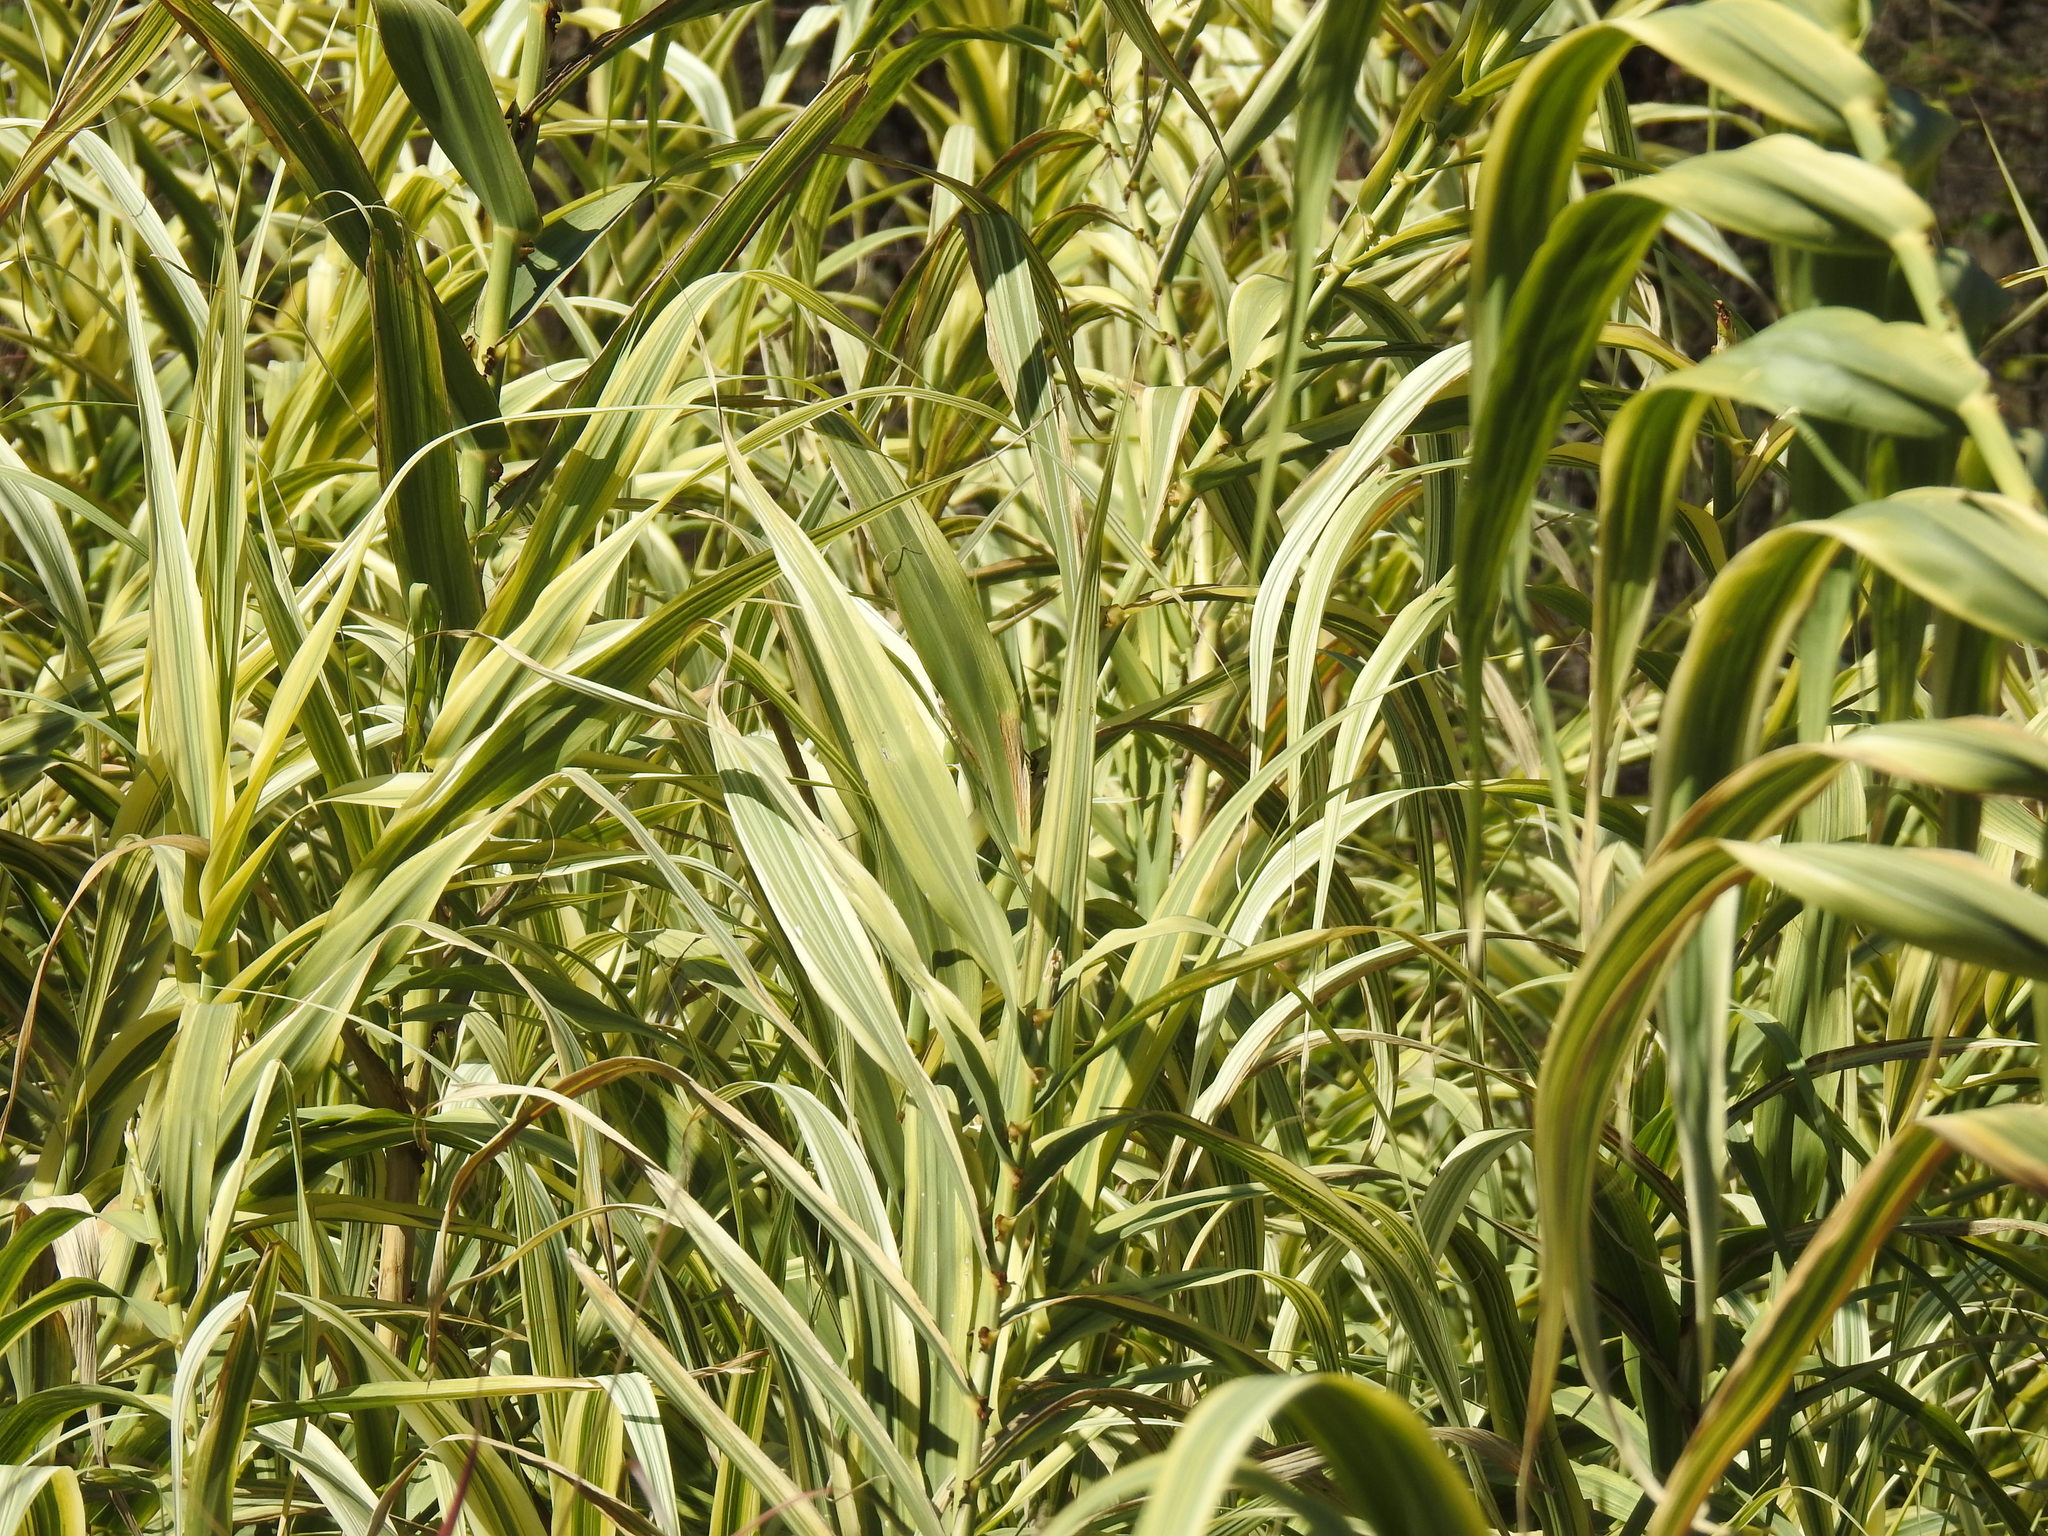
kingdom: Plantae
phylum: Tracheophyta
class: Liliopsida
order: Poales
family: Poaceae
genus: Arundo
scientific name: Arundo donax
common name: Giant reed
